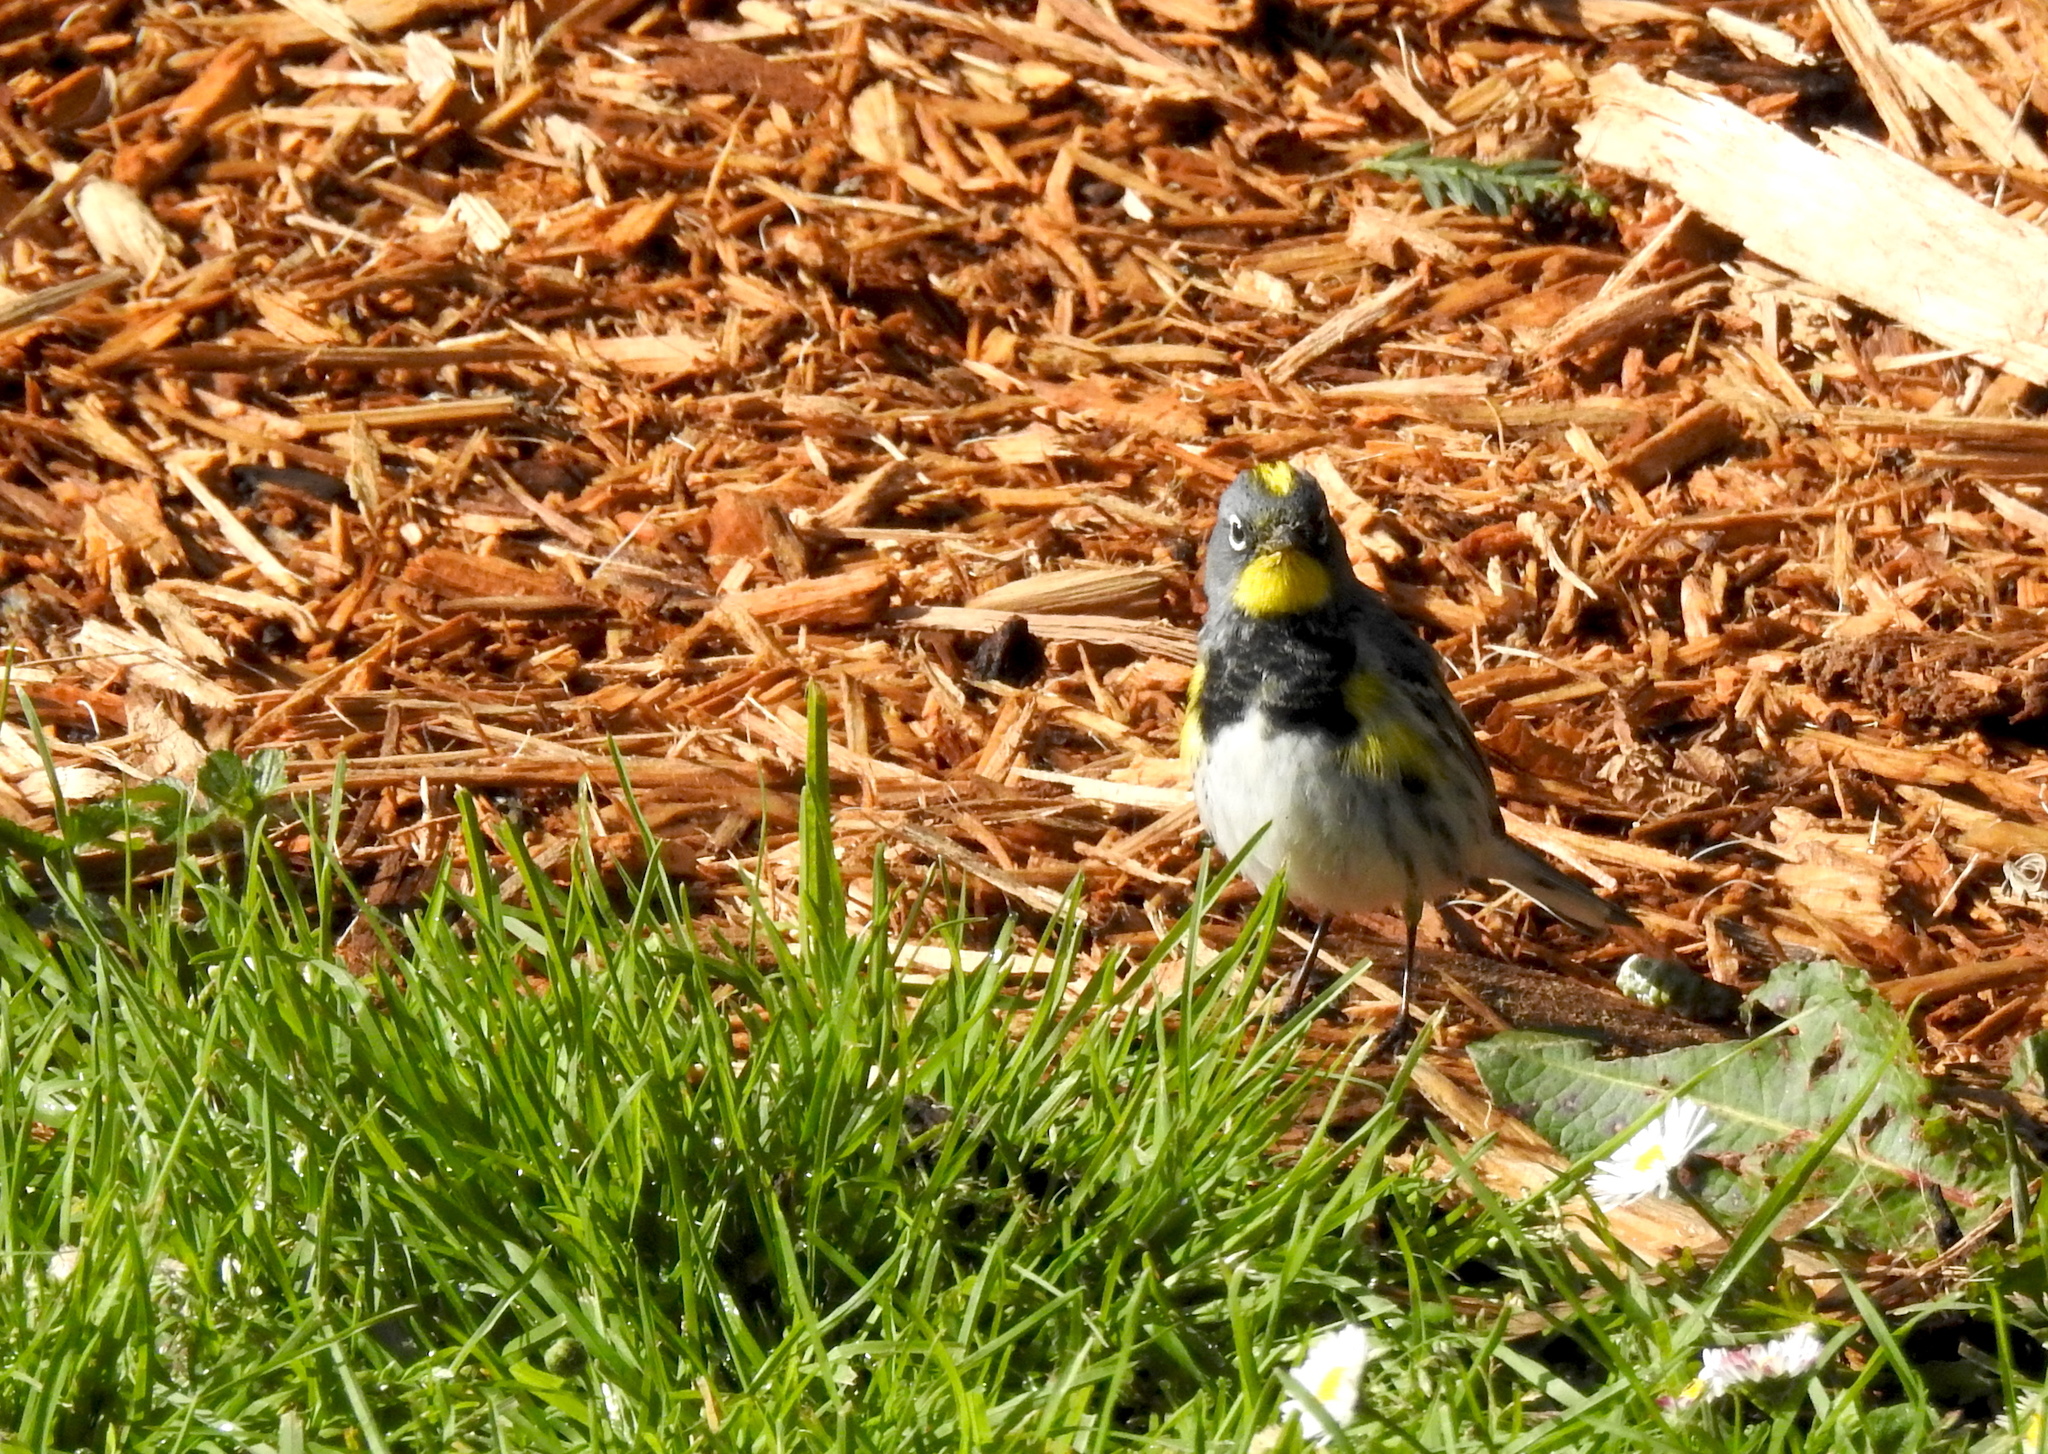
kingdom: Animalia
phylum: Chordata
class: Aves
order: Passeriformes
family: Parulidae
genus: Setophaga
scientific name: Setophaga auduboni
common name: Audubon's warbler
